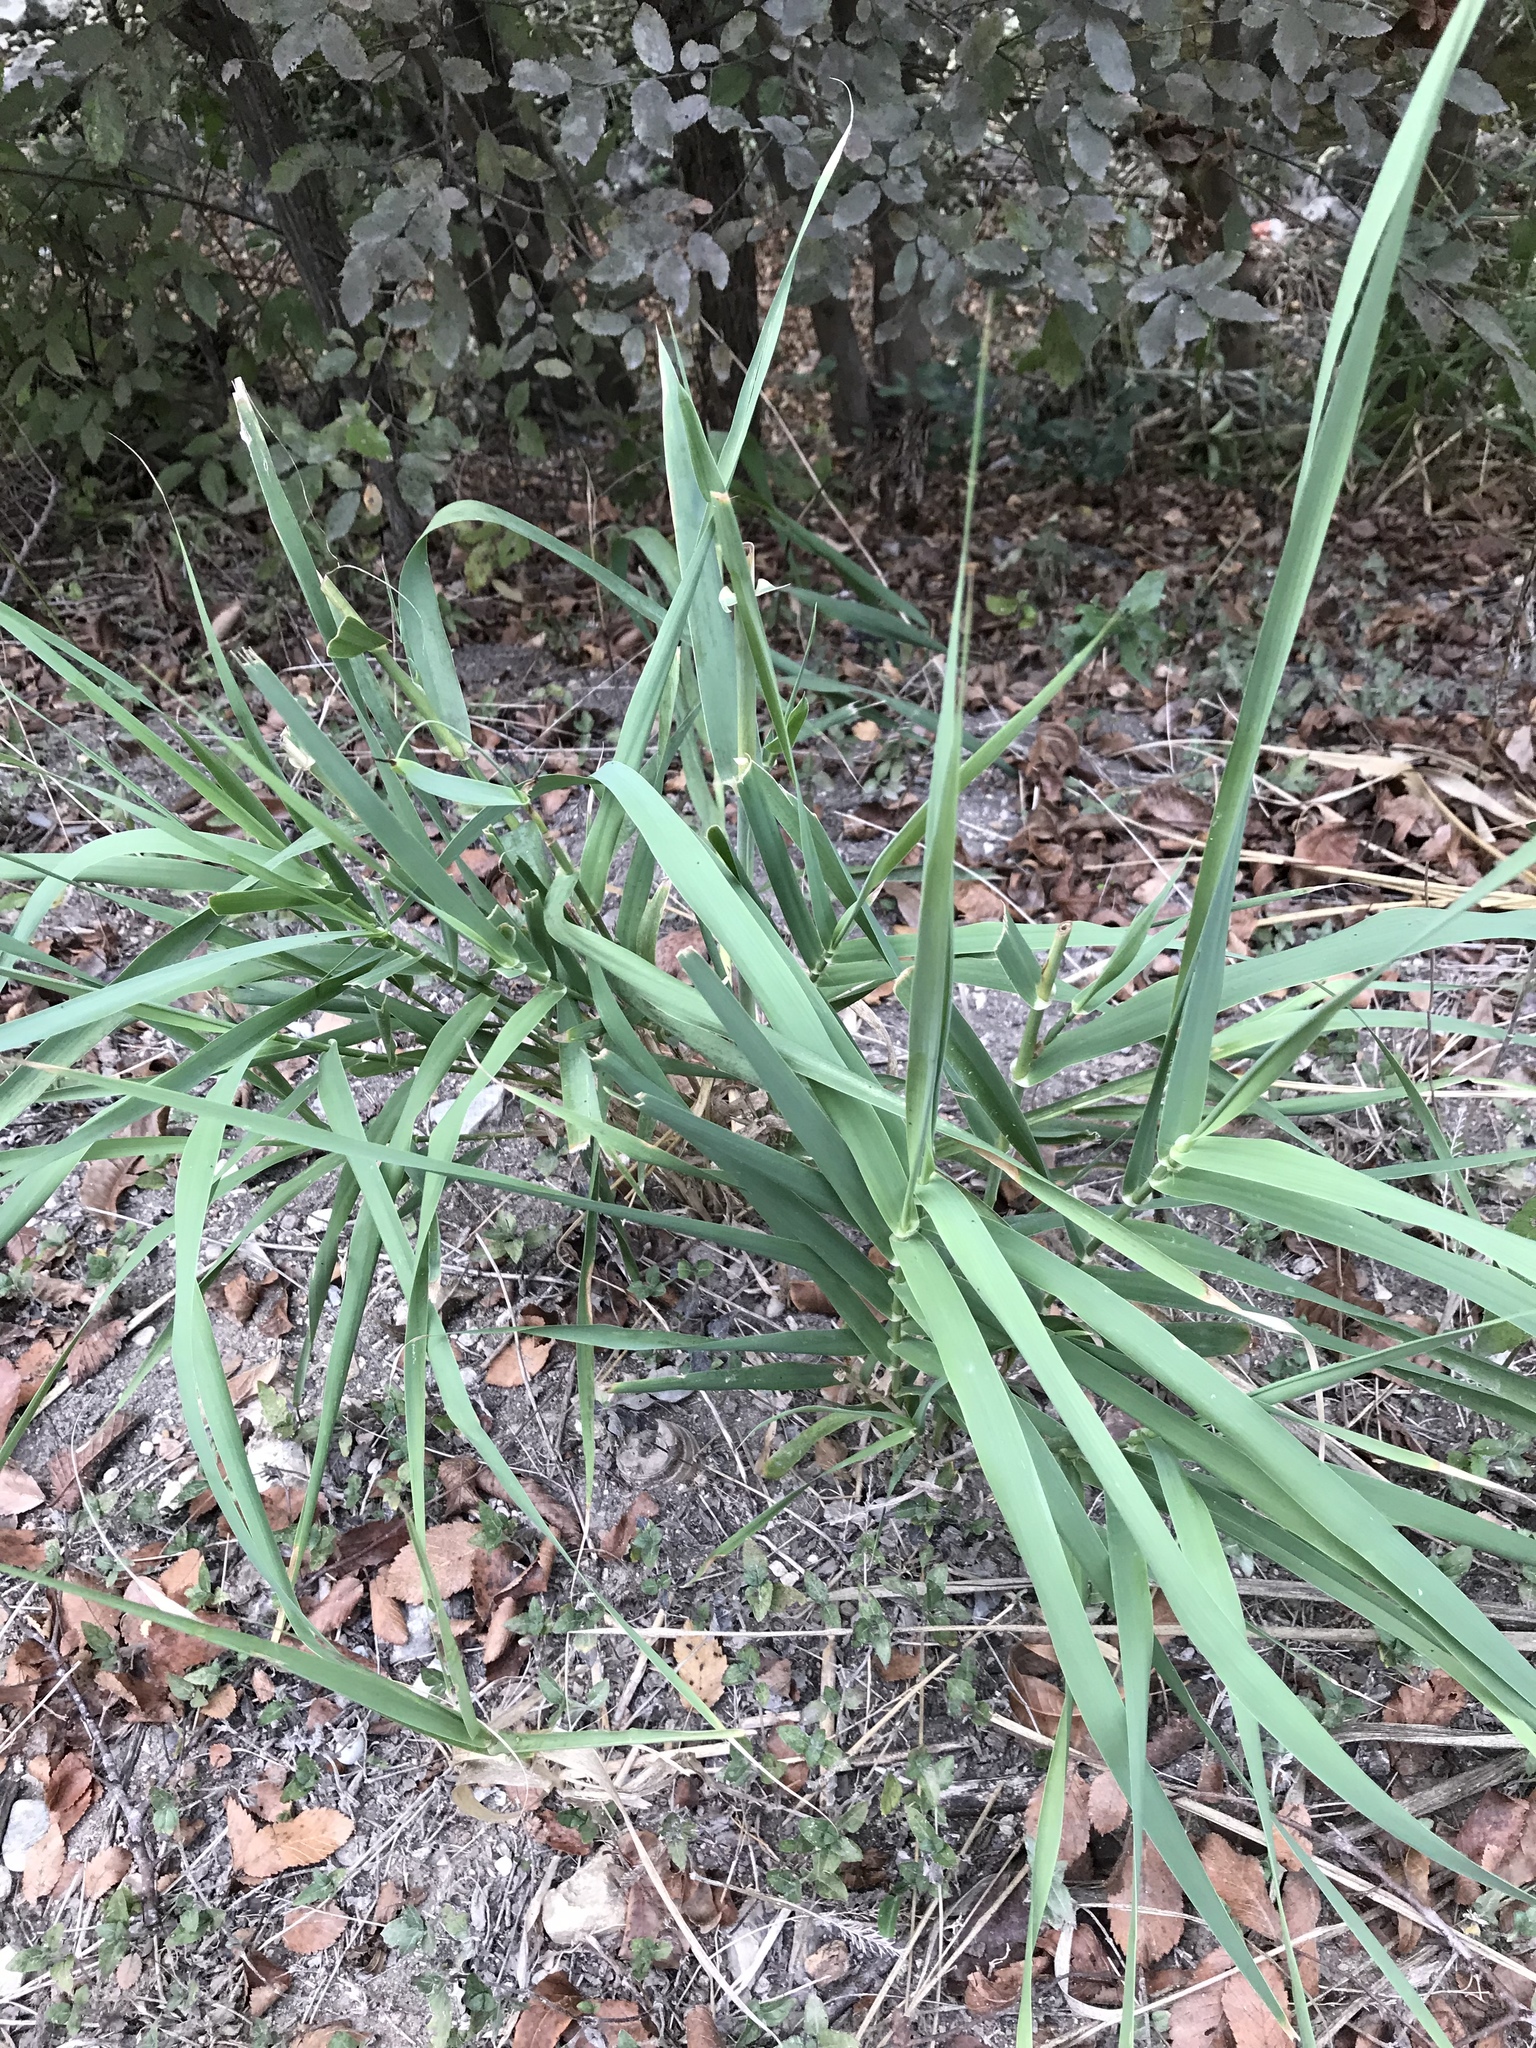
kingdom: Plantae
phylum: Tracheophyta
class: Liliopsida
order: Poales
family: Poaceae
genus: Arundo
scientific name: Arundo donax
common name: Giant reed
